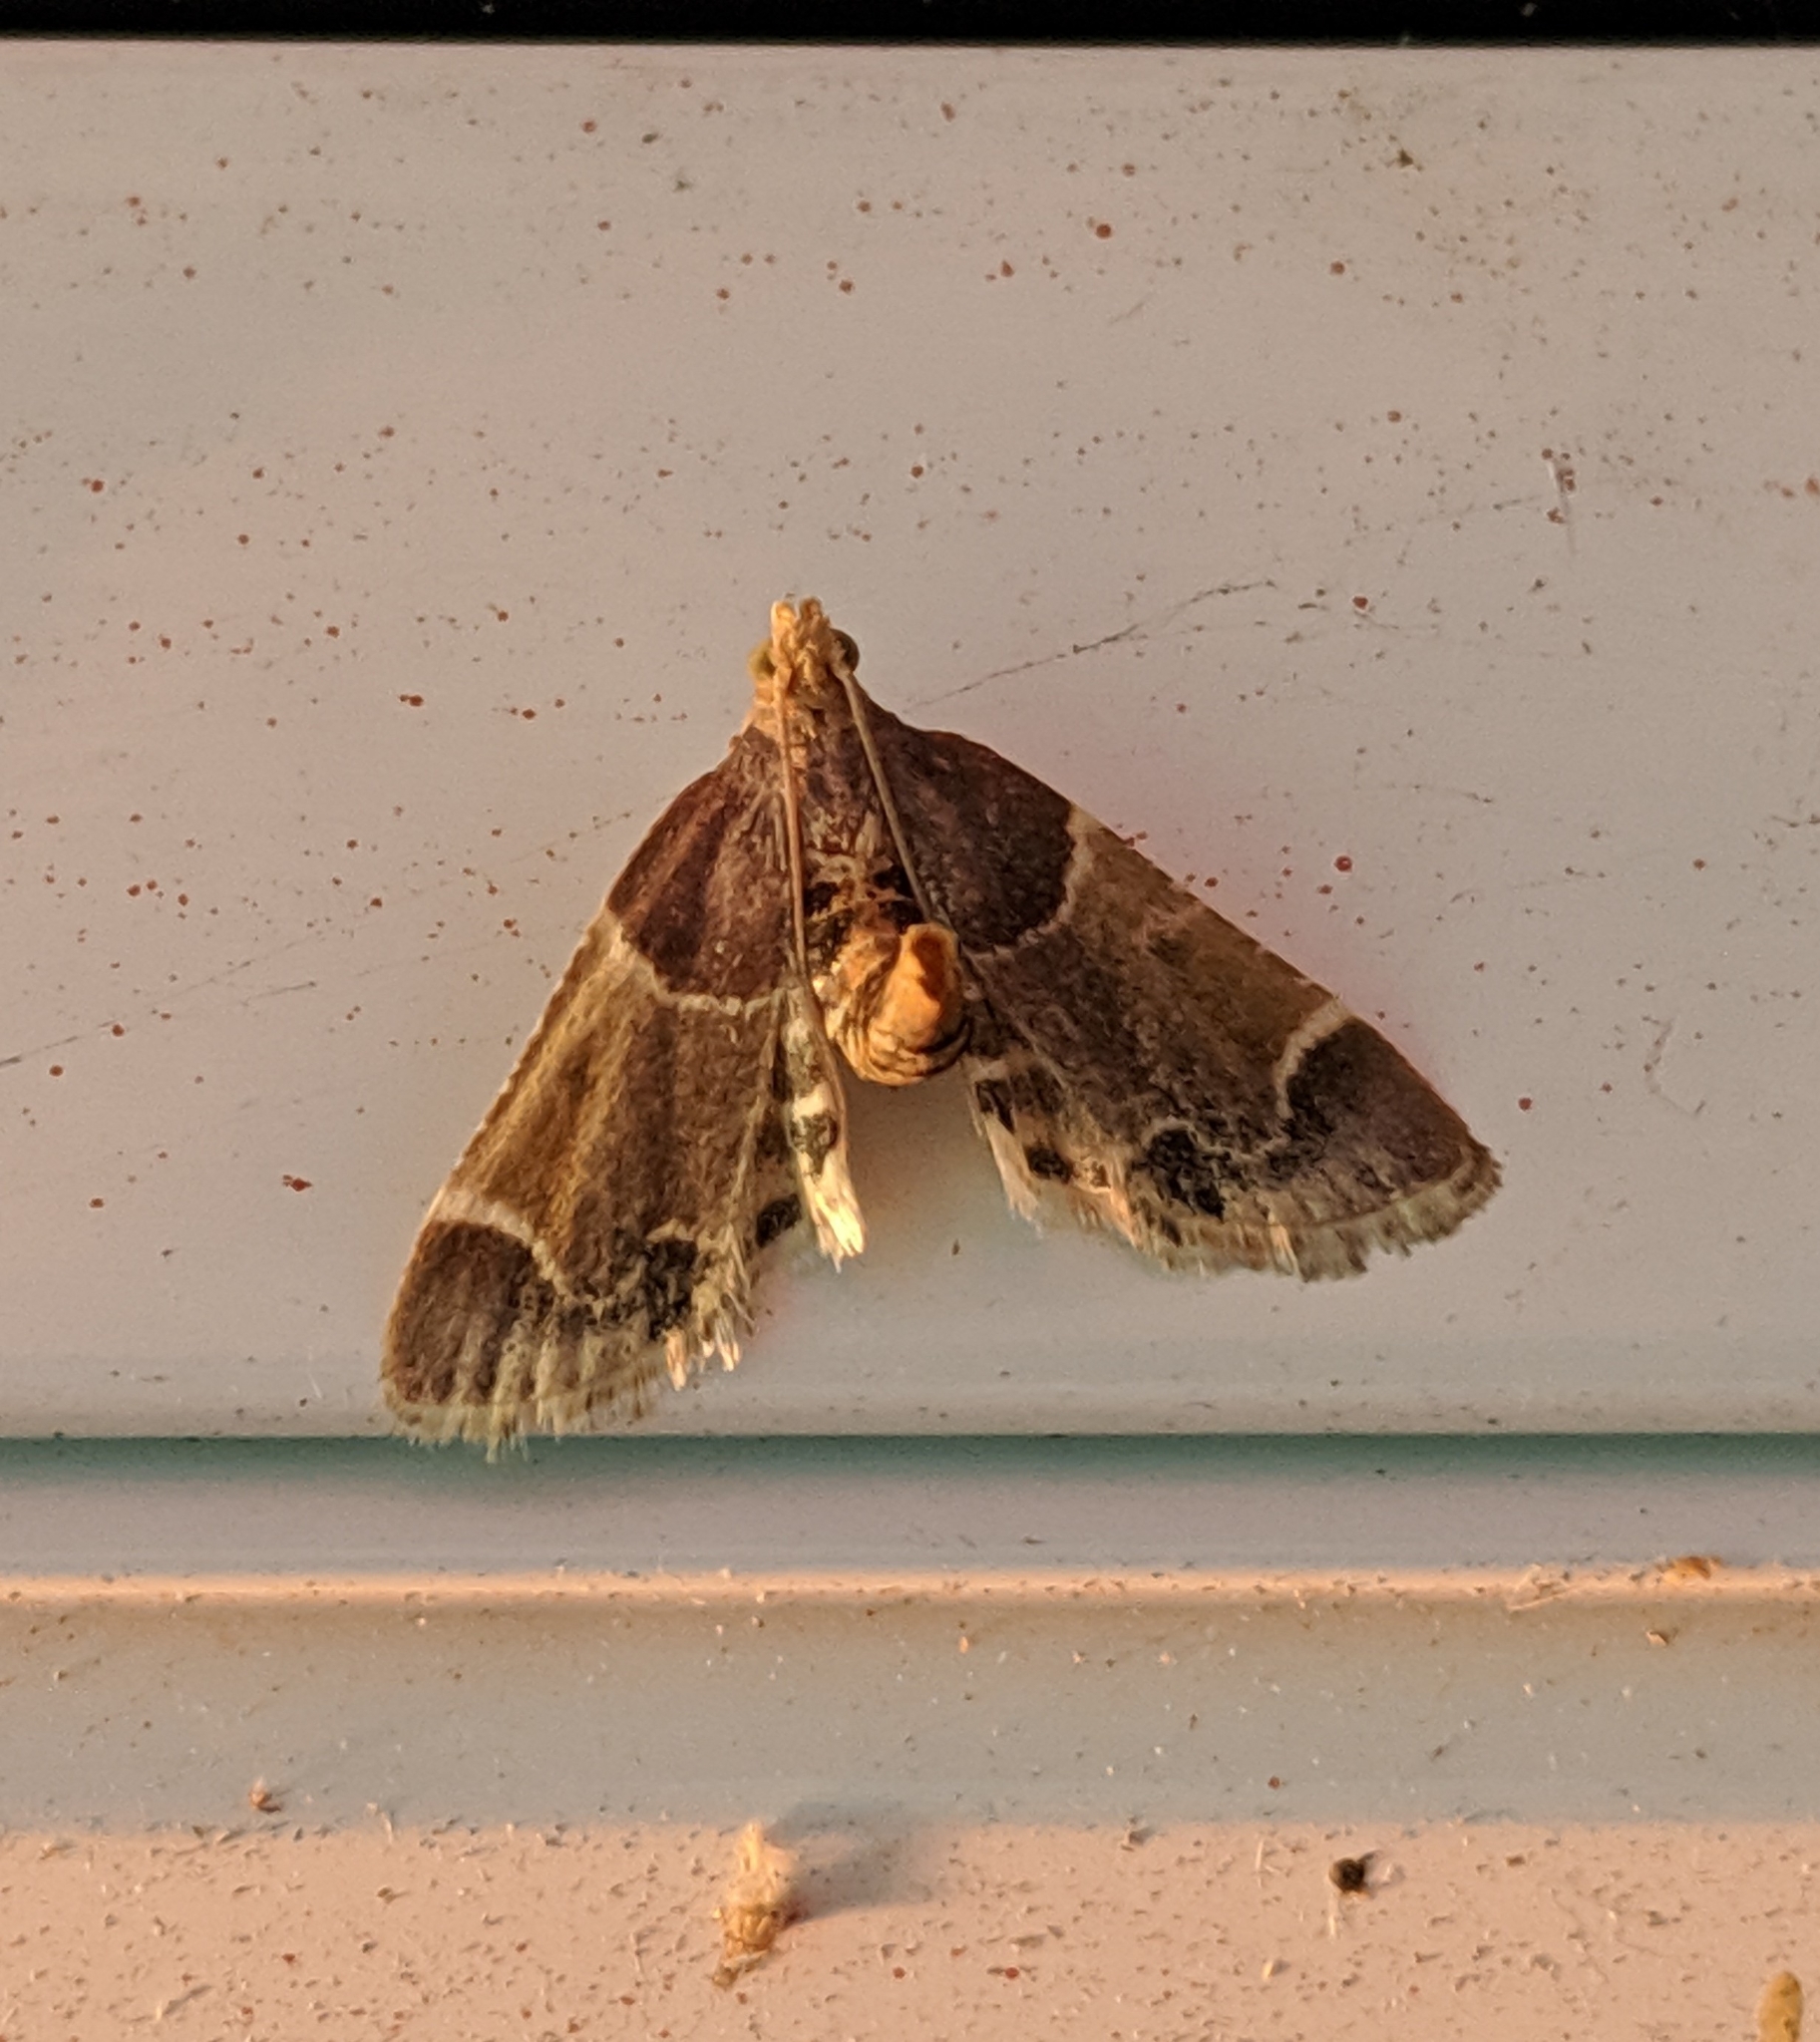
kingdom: Animalia
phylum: Arthropoda
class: Insecta
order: Lepidoptera
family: Pyralidae
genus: Pyralis
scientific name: Pyralis farinalis
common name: Meal moth
